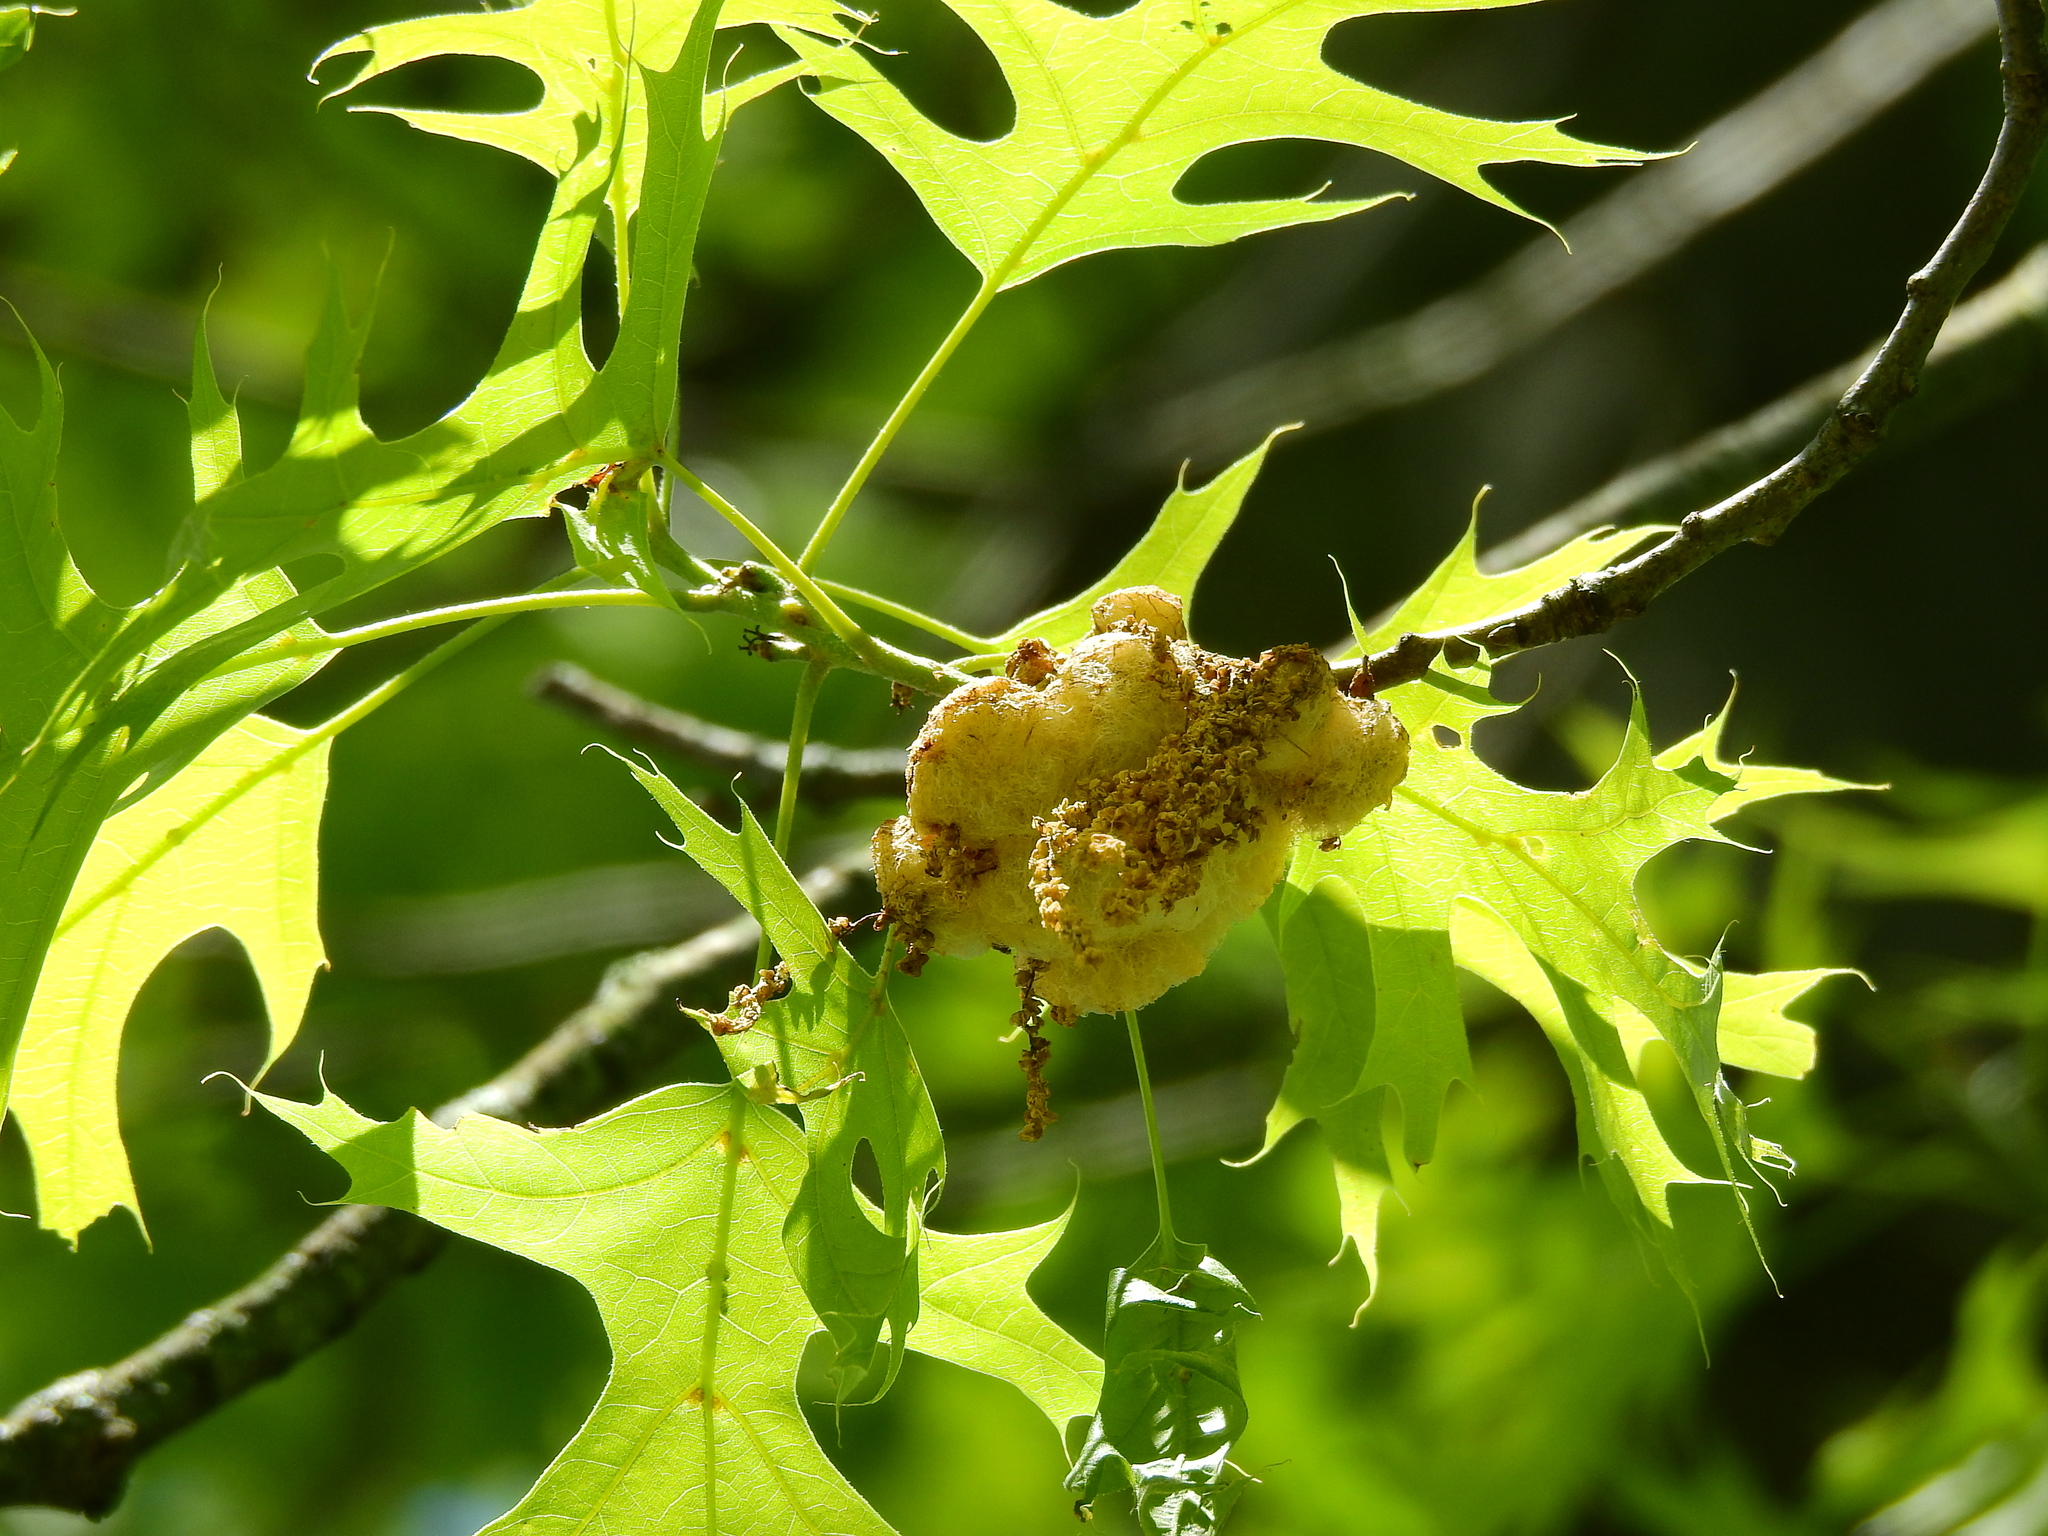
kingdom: Animalia
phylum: Arthropoda
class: Insecta
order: Hymenoptera
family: Cynipidae
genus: Callirhytis
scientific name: Callirhytis
